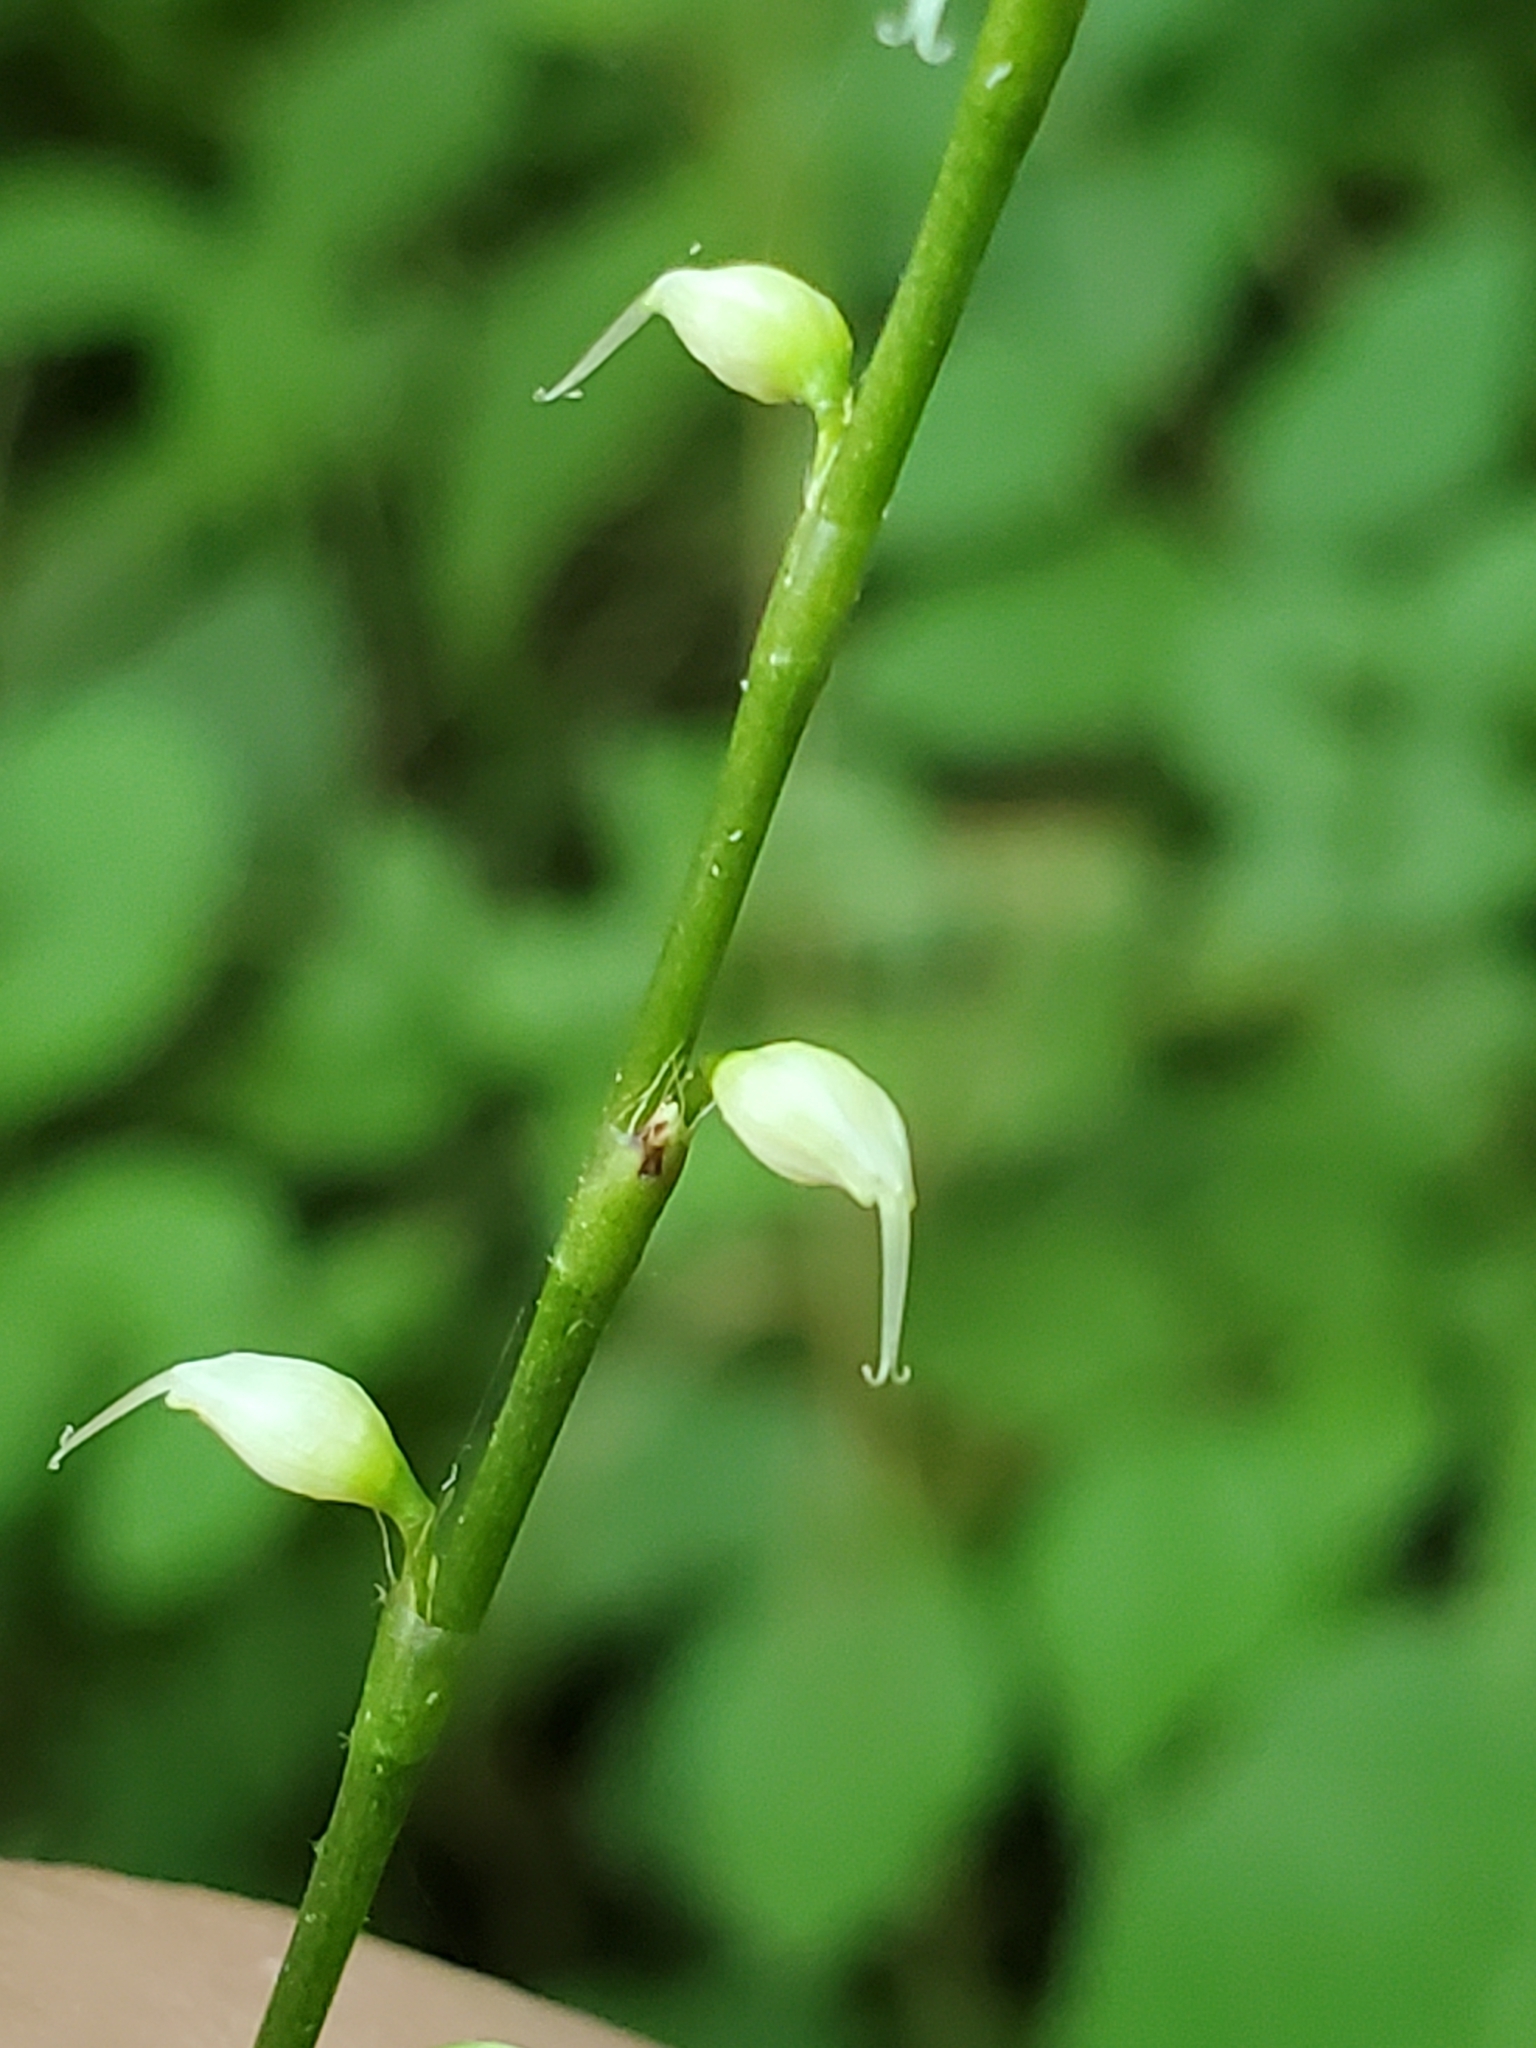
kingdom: Plantae
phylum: Tracheophyta
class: Magnoliopsida
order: Caryophyllales
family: Polygonaceae
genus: Persicaria
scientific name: Persicaria virginiana
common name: Jumpseed
